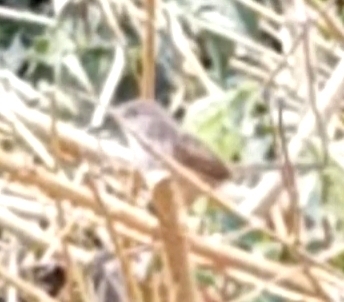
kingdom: Animalia
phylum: Chordata
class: Aves
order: Passeriformes
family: Cisticolidae
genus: Prinia
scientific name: Prinia gracilis
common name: Graceful prinia
